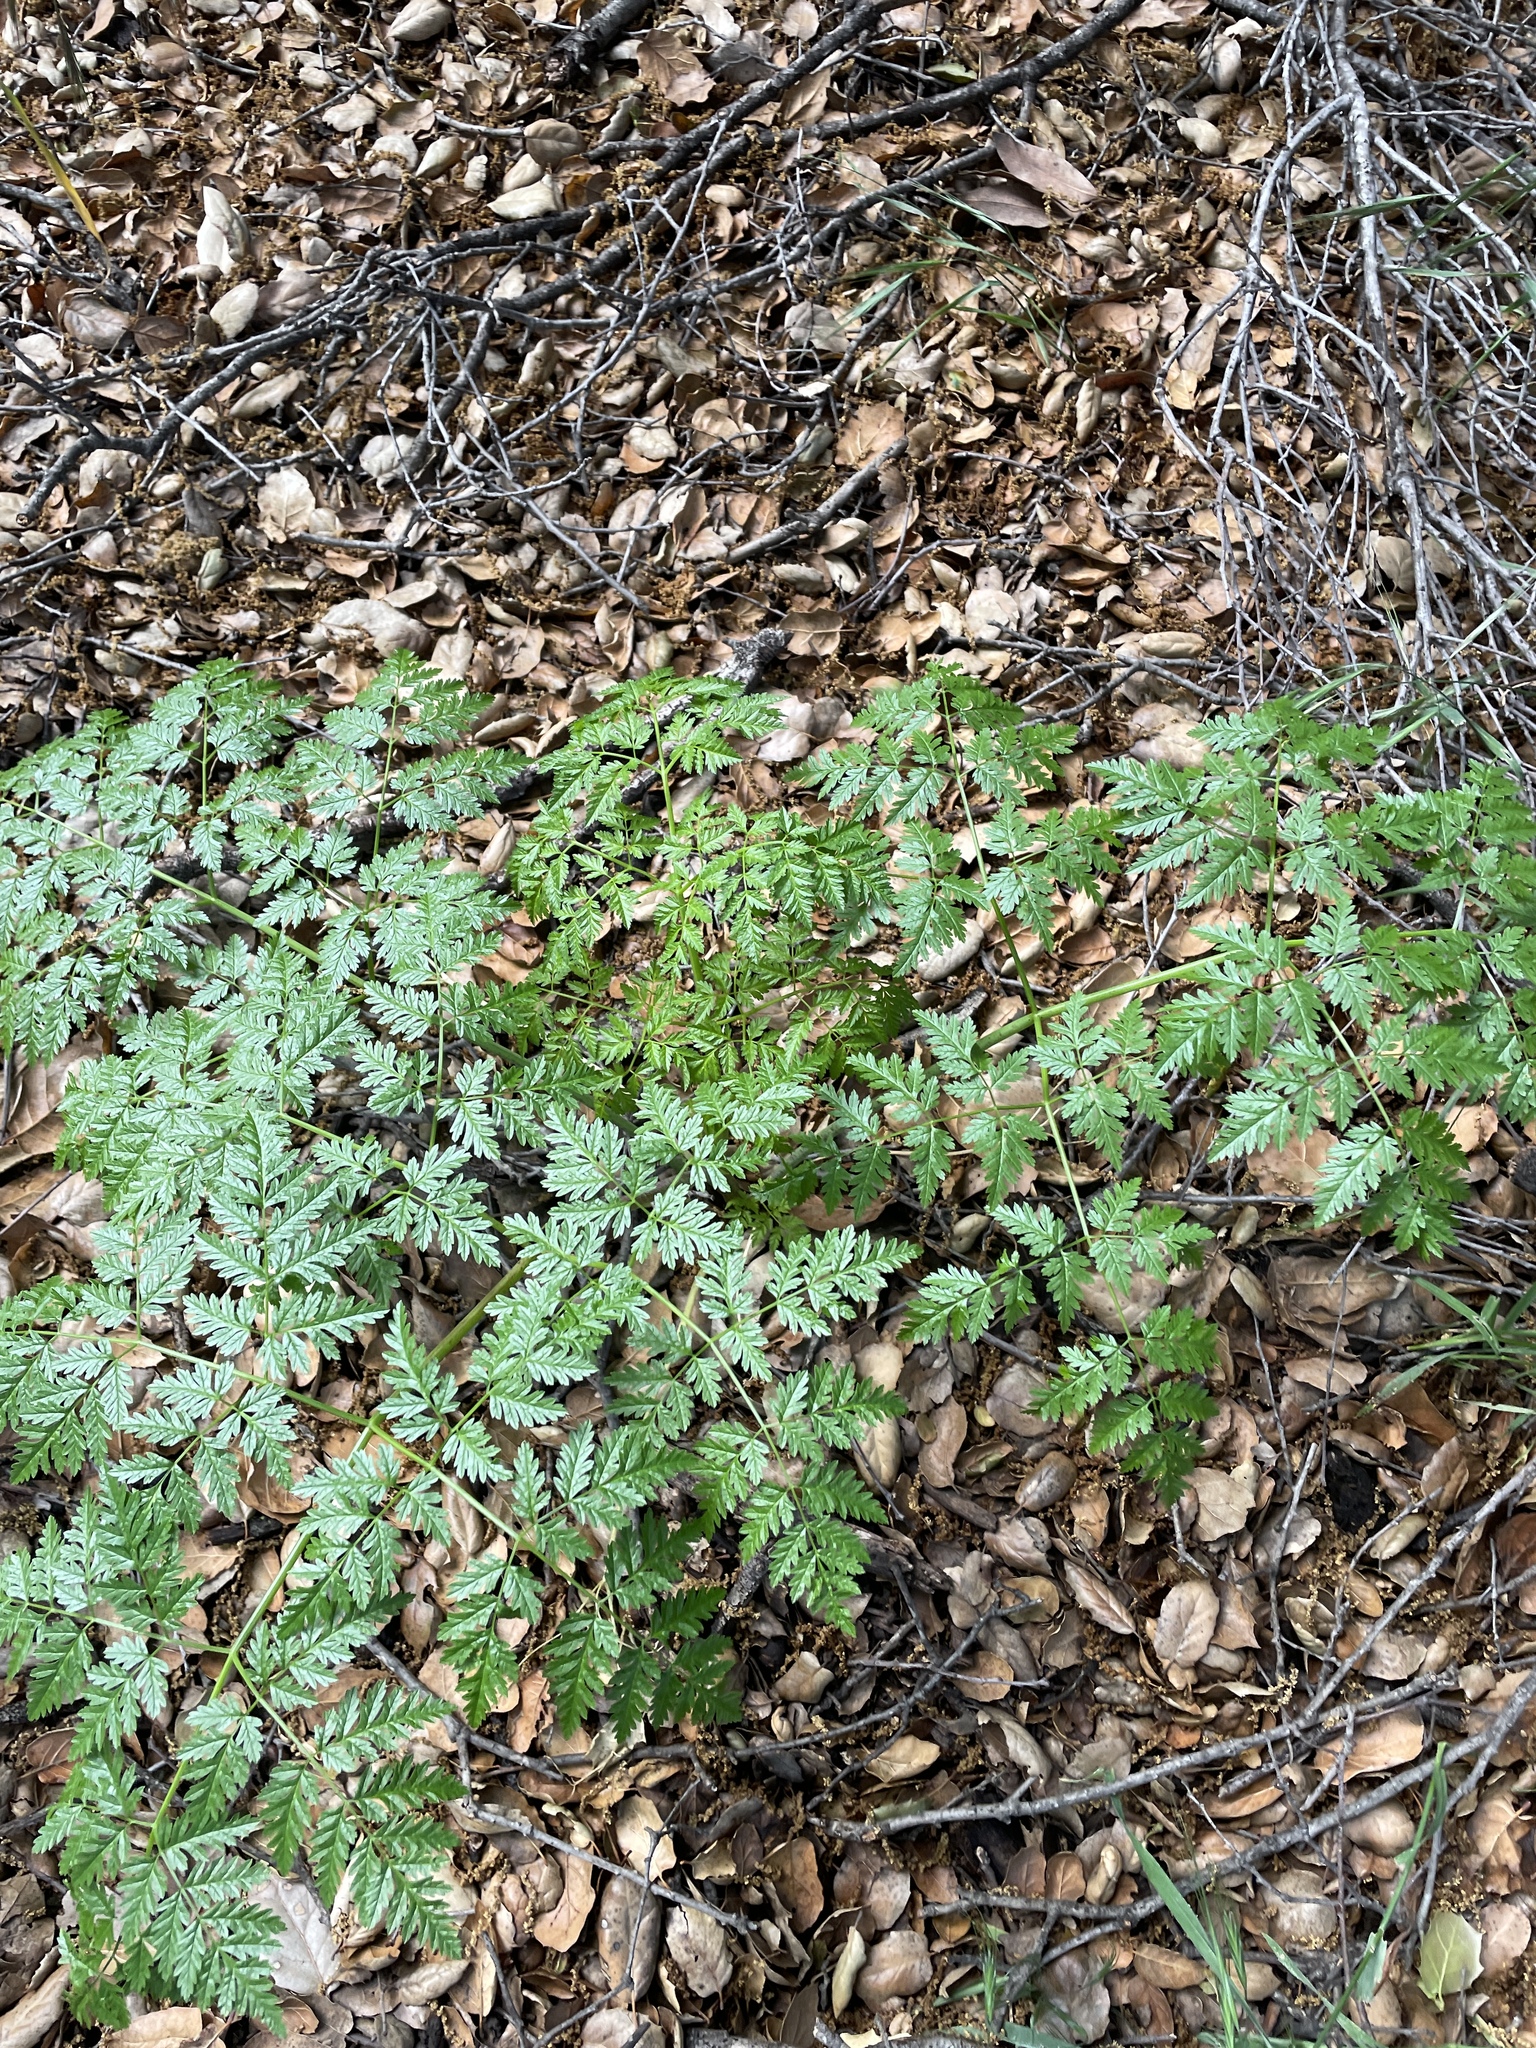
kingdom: Plantae
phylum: Tracheophyta
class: Magnoliopsida
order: Apiales
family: Apiaceae
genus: Conium
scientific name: Conium maculatum
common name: Hemlock
